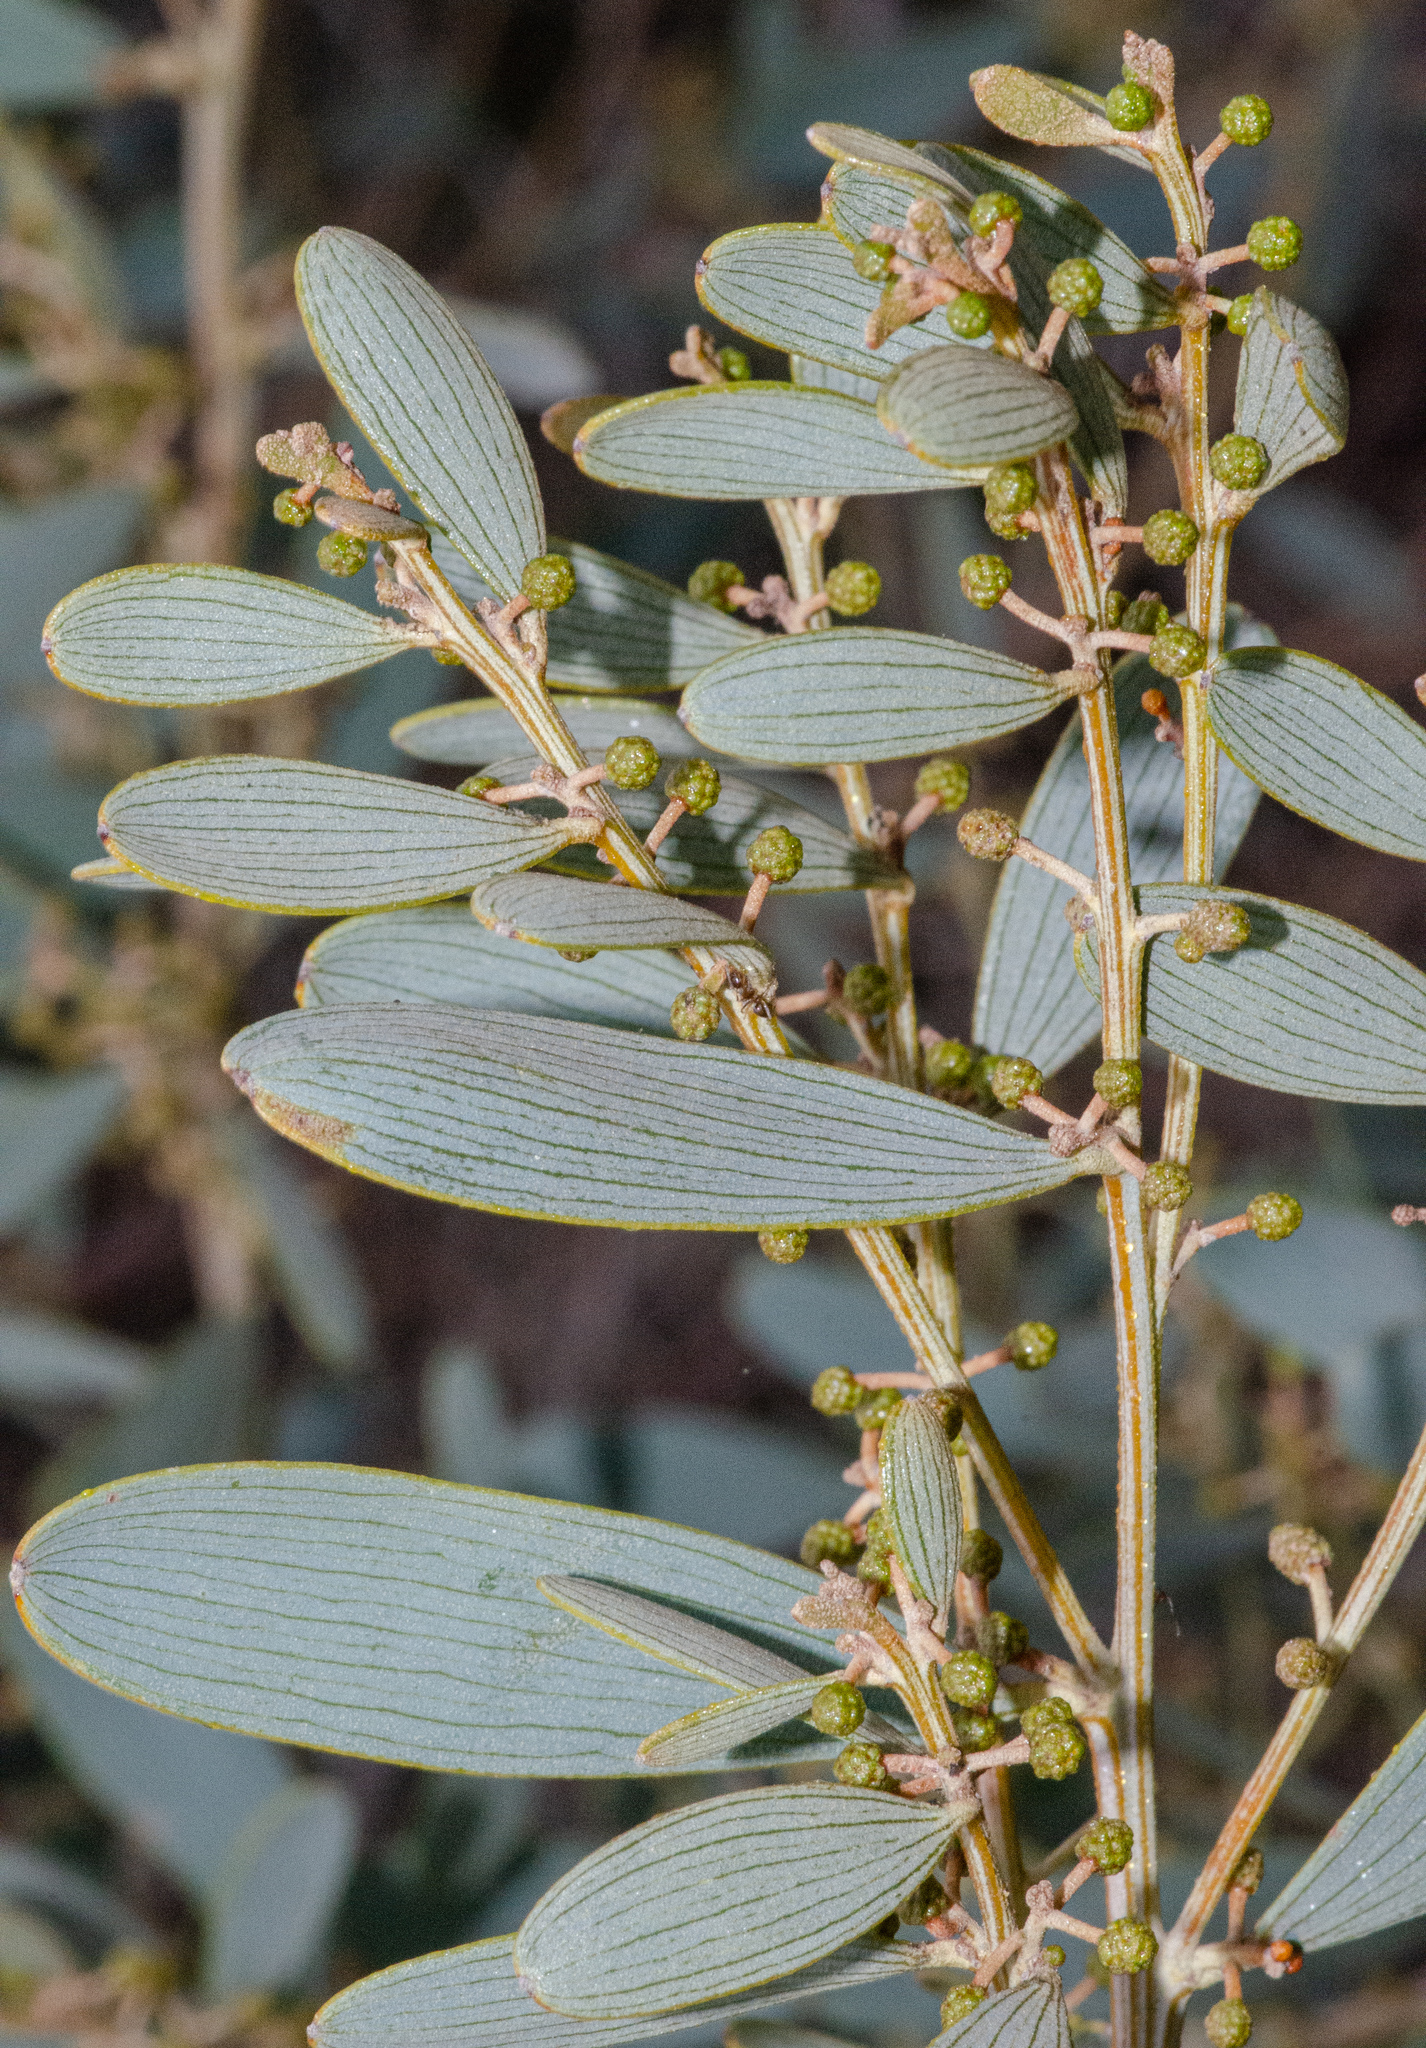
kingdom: Plantae
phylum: Tracheophyta
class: Magnoliopsida
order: Fabales
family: Fabaceae
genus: Acacia
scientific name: Acacia redolens
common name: Bank catclaw
